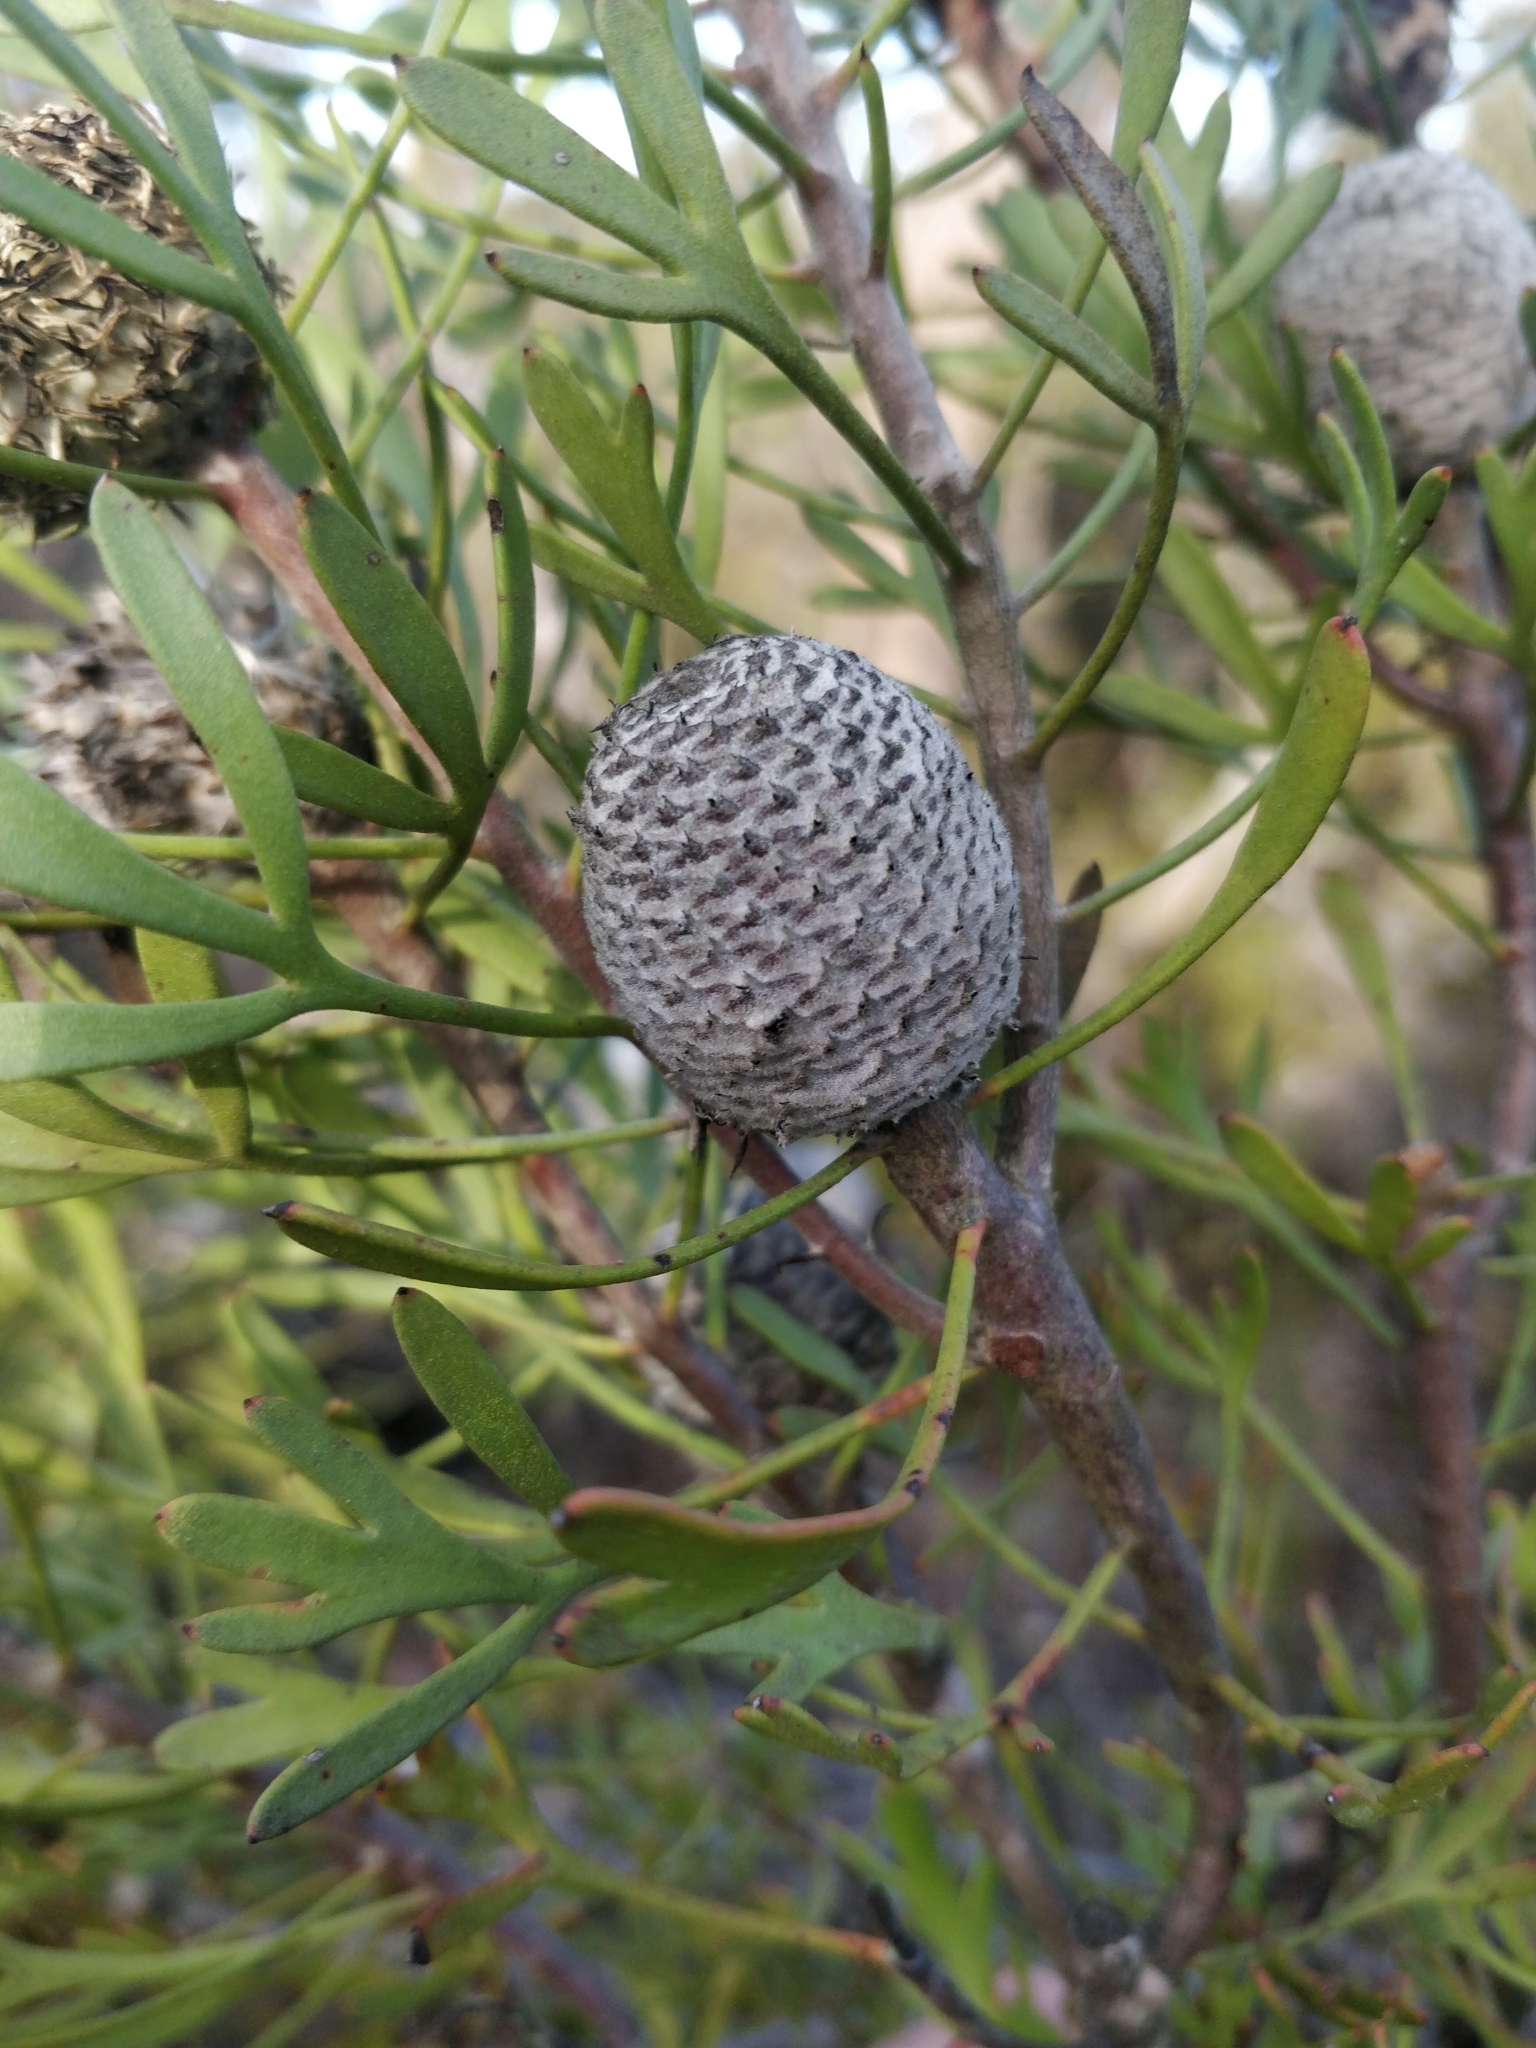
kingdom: Plantae
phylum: Tracheophyta
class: Magnoliopsida
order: Proteales
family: Proteaceae
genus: Isopogon
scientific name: Isopogon trilobus
